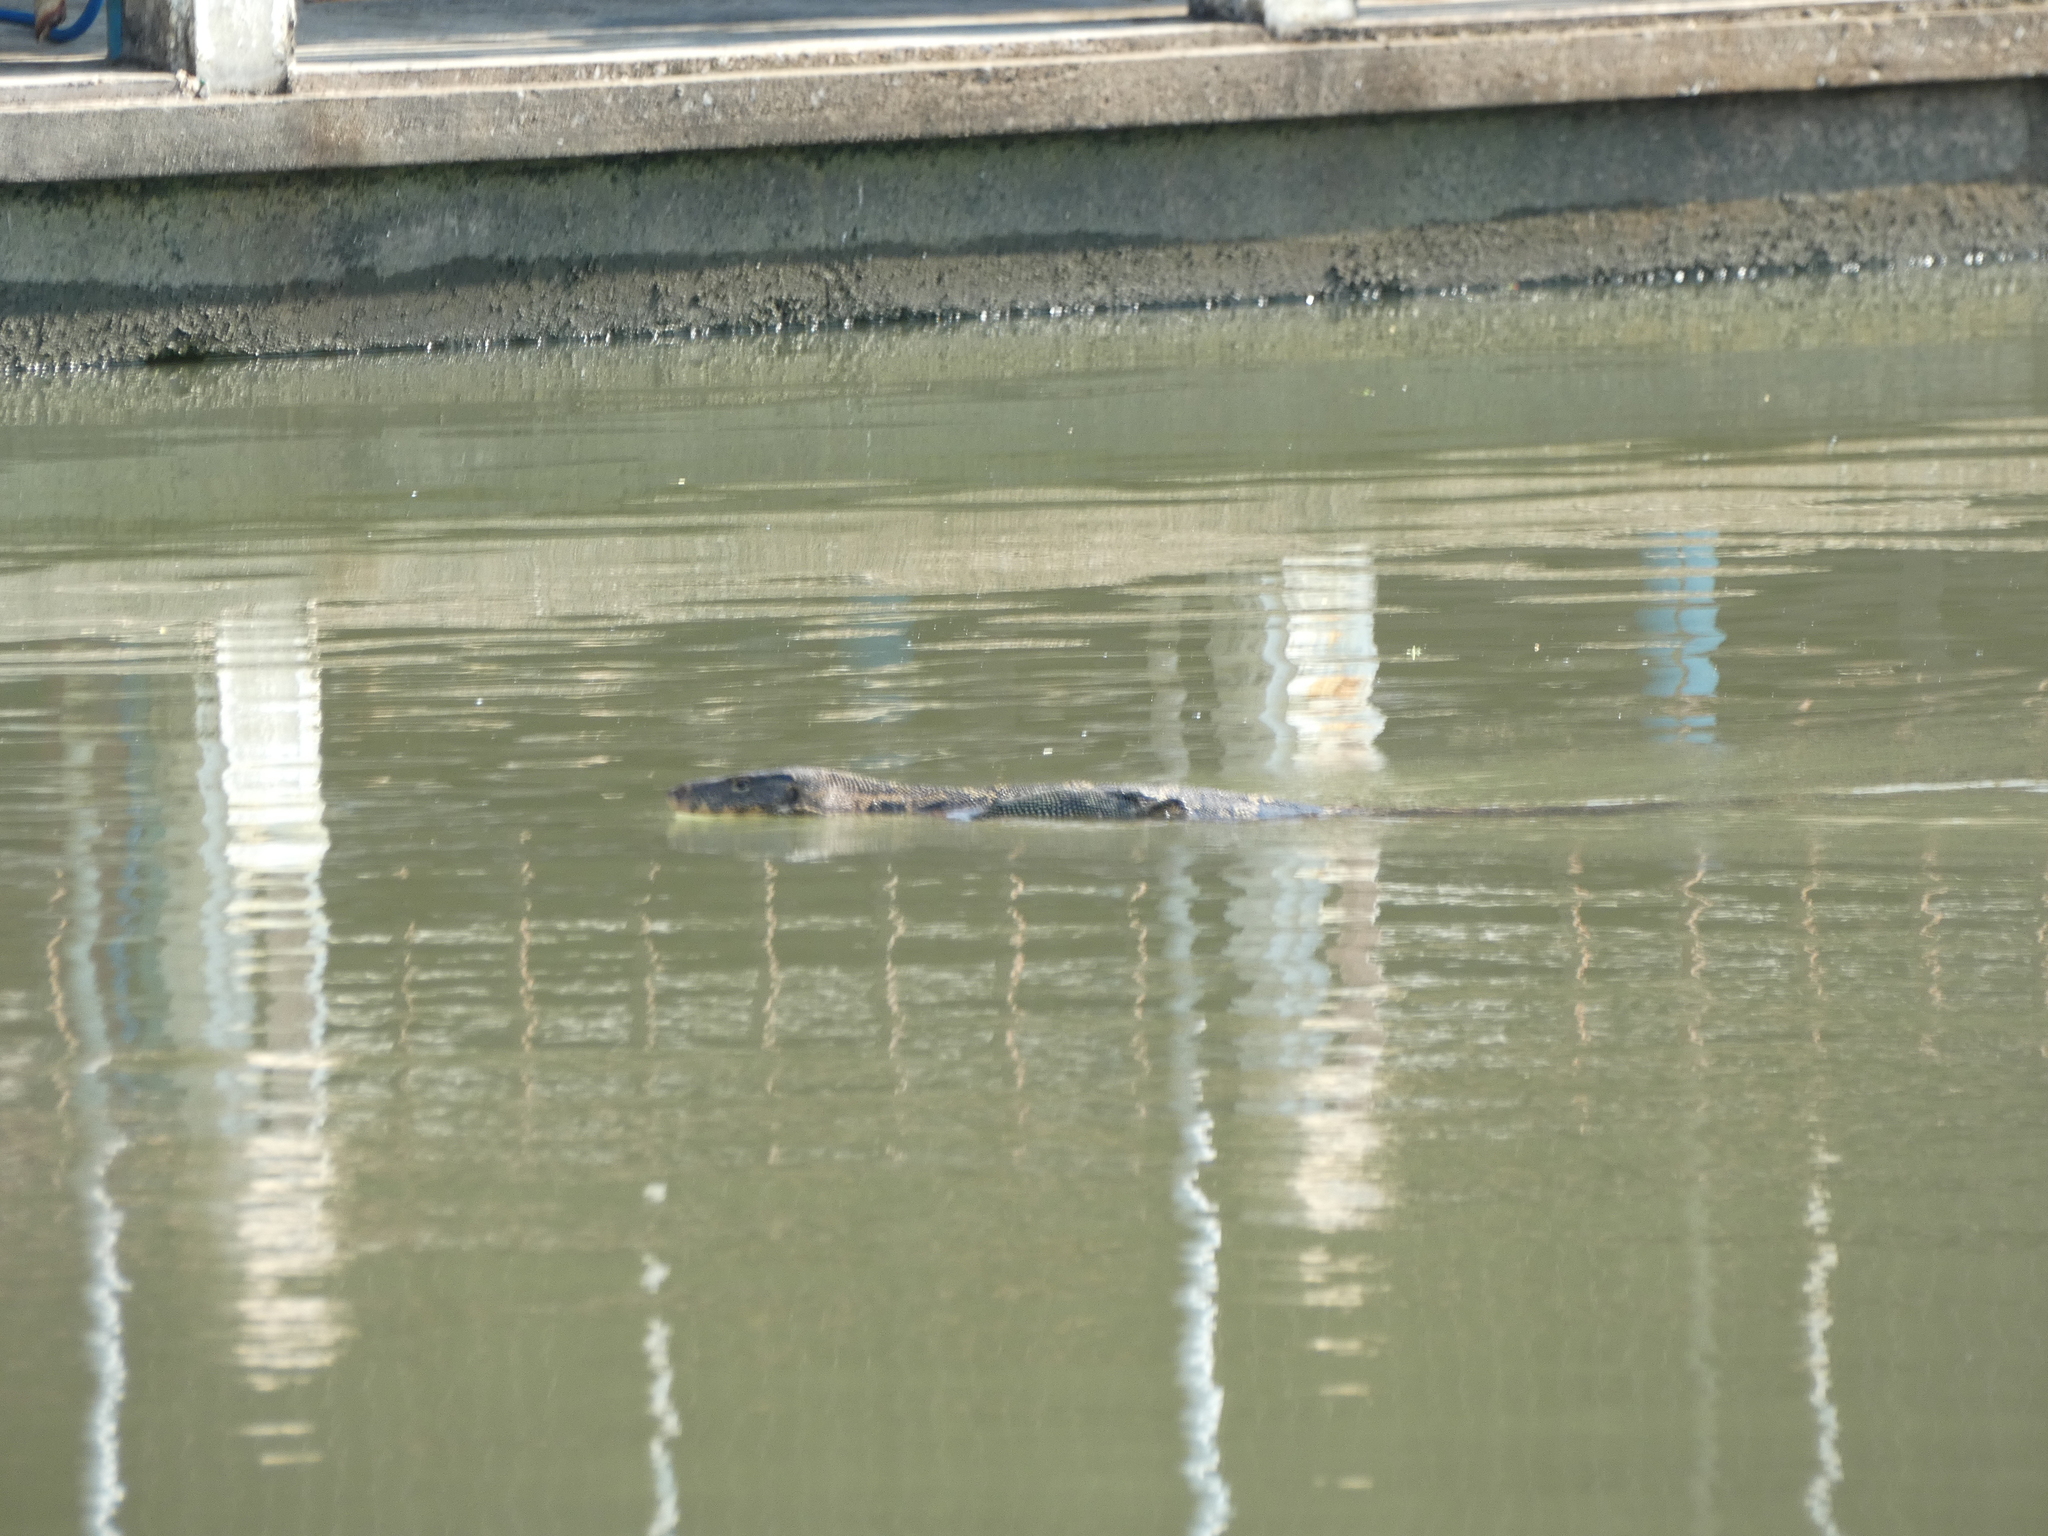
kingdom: Animalia
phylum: Chordata
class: Squamata
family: Varanidae
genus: Varanus
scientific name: Varanus salvator
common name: Common water monitor
